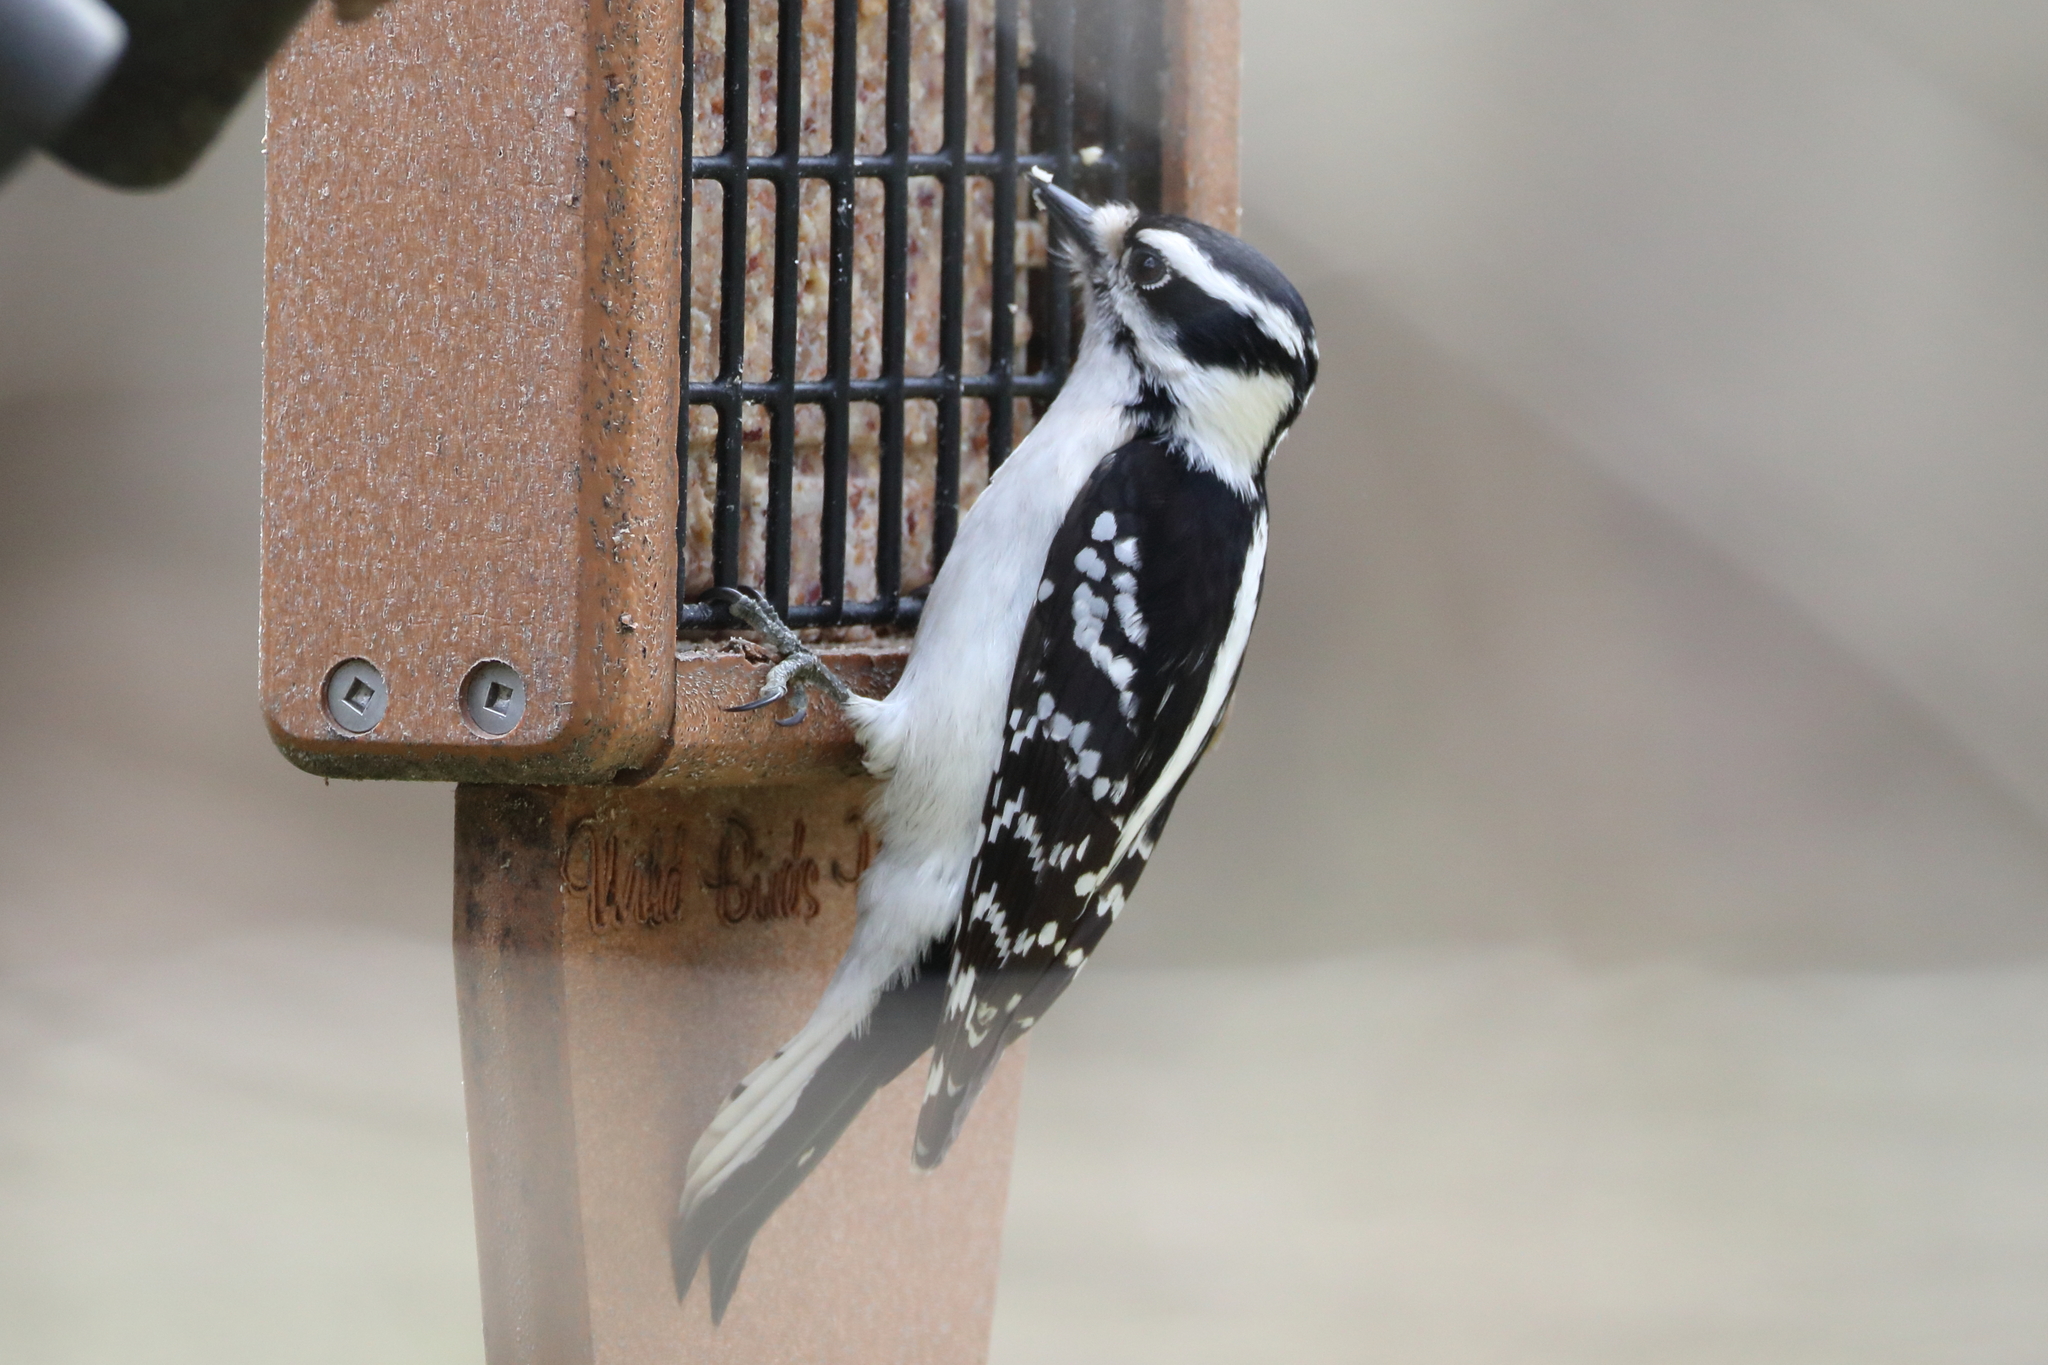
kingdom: Animalia
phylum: Chordata
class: Aves
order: Piciformes
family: Picidae
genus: Dryobates
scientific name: Dryobates pubescens
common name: Downy woodpecker
